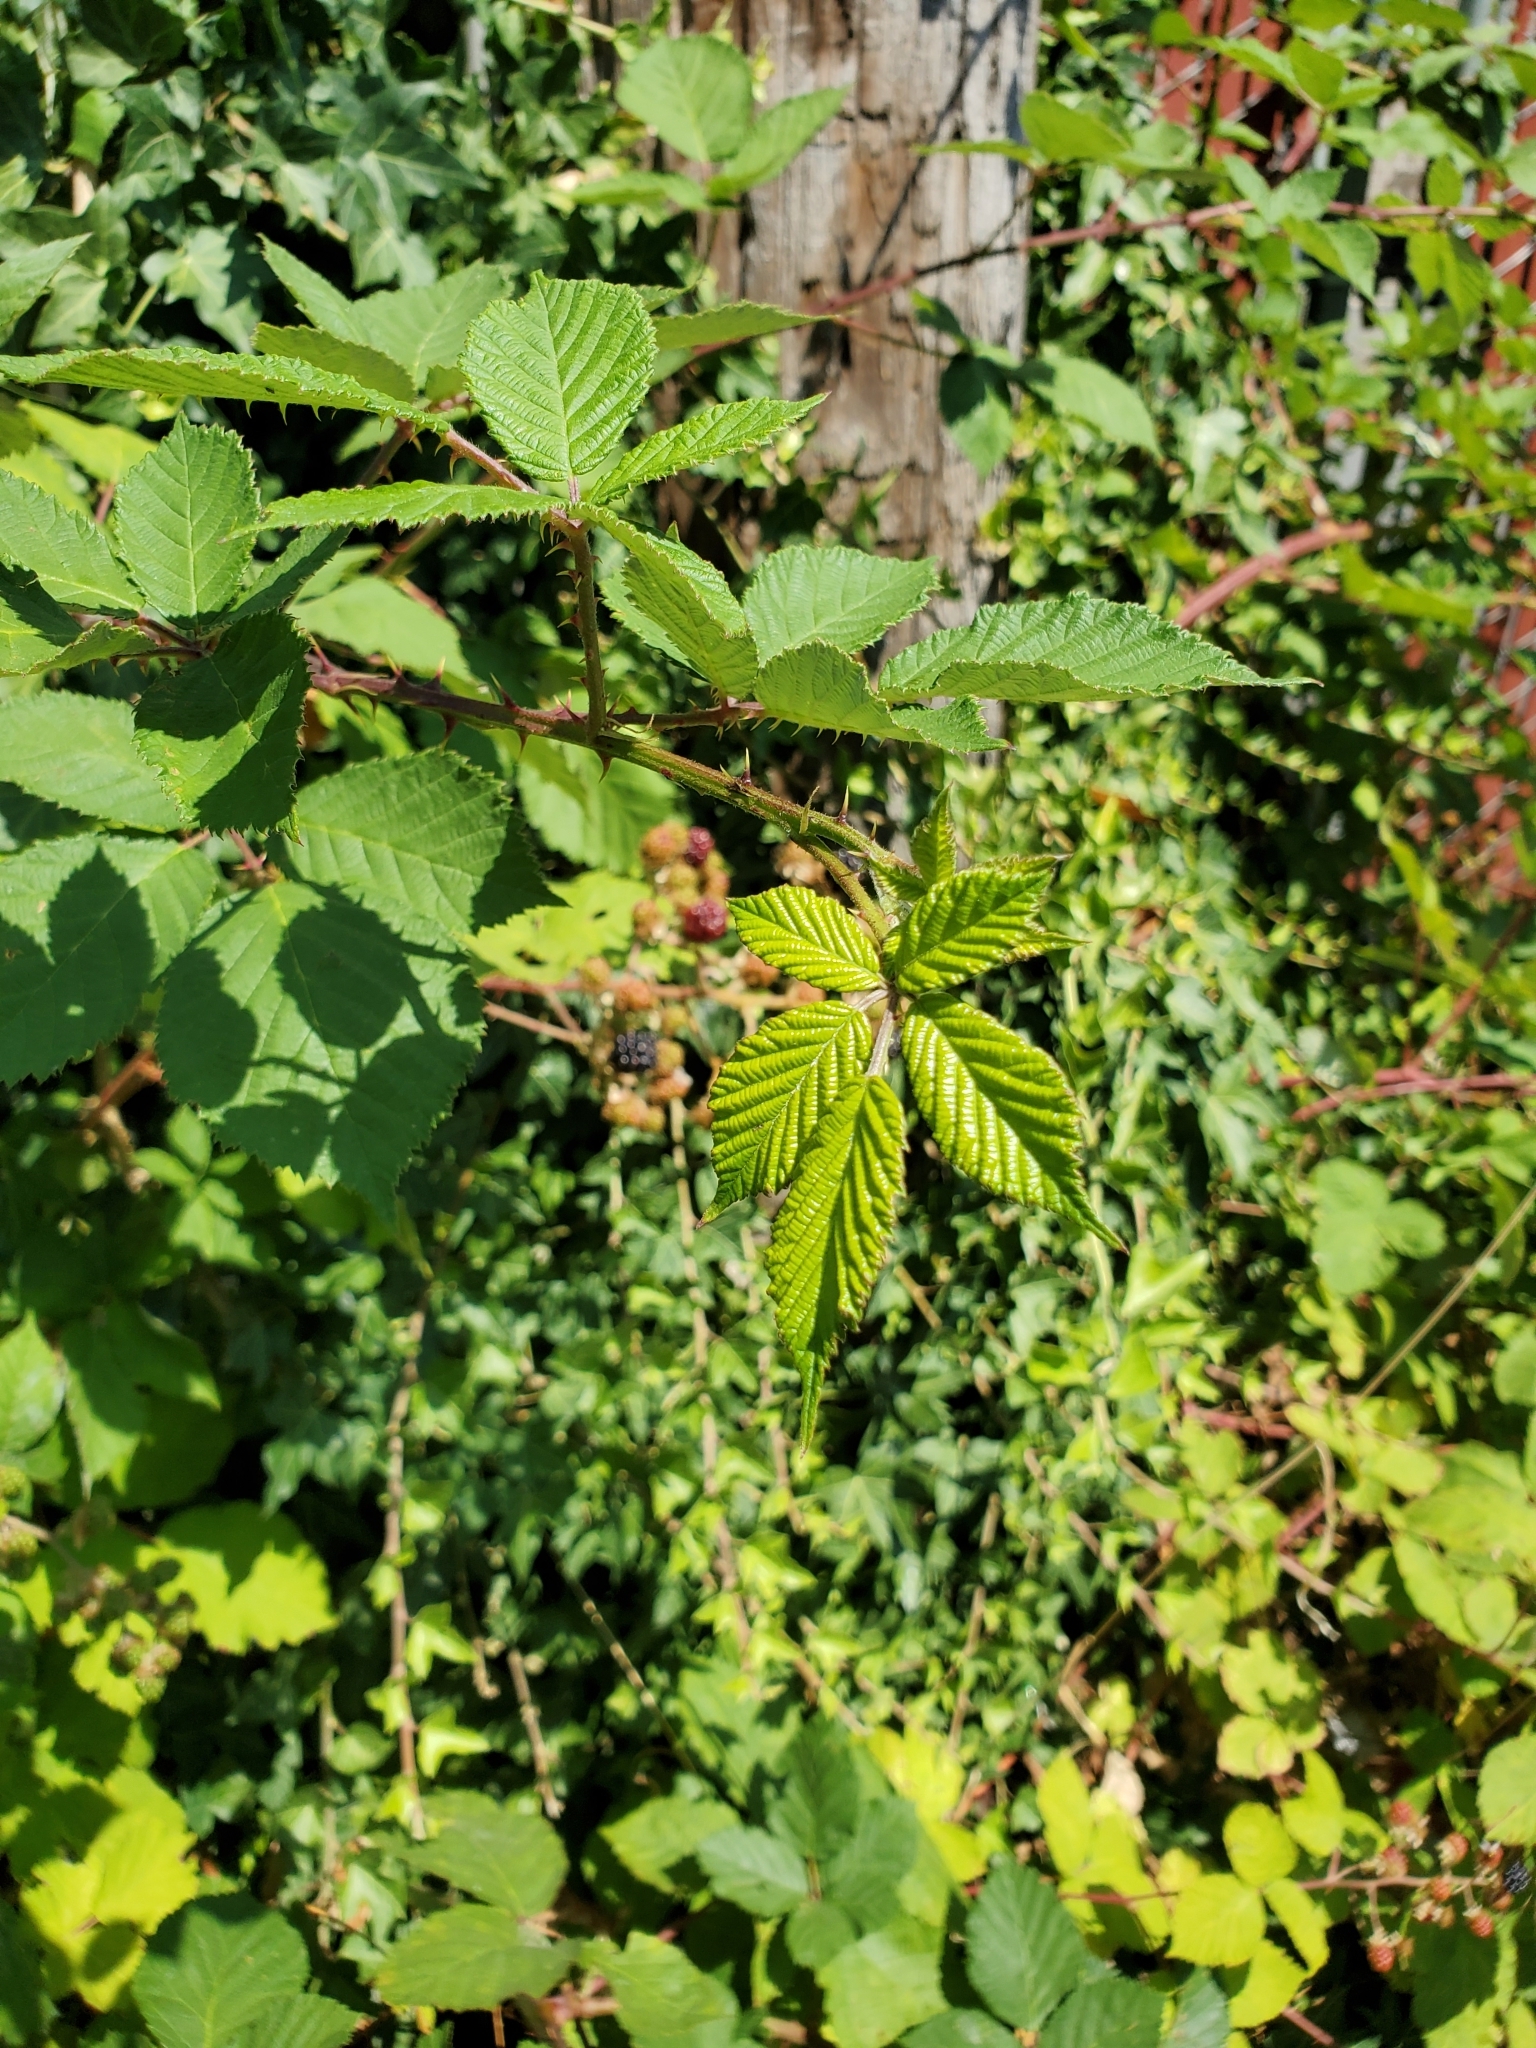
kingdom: Plantae
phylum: Tracheophyta
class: Magnoliopsida
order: Rosales
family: Rosaceae
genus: Rubus
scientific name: Rubus armeniacus
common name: Himalayan blackberry
